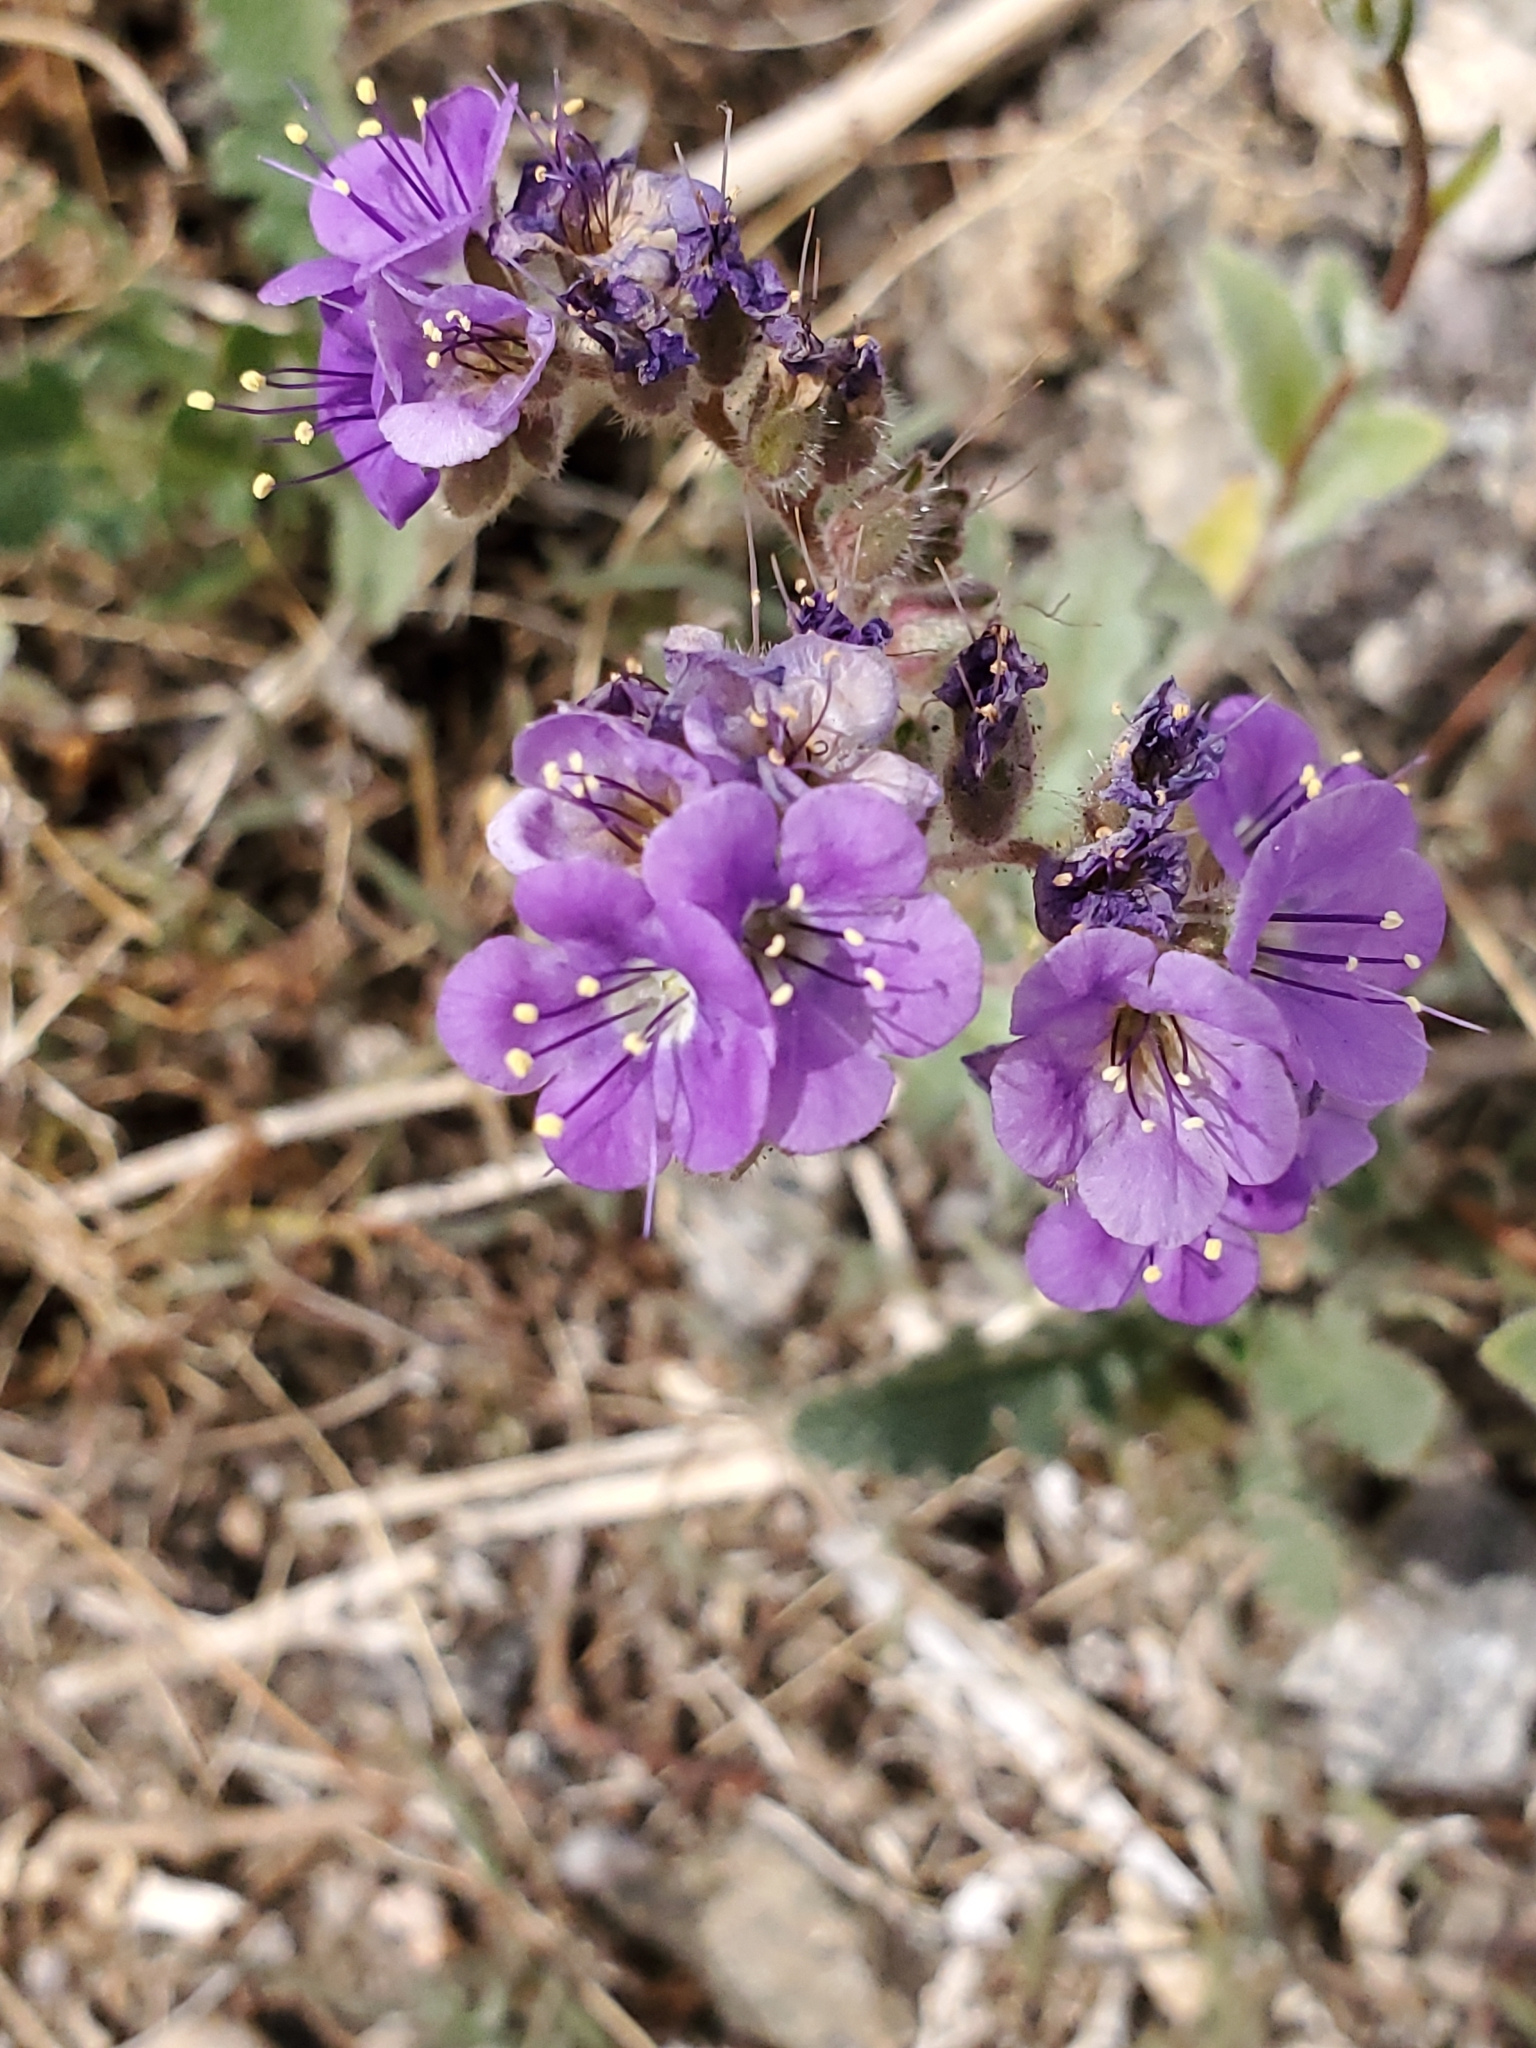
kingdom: Plantae
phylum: Tracheophyta
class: Magnoliopsida
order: Boraginales
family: Hydrophyllaceae
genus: Phacelia
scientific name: Phacelia crenulata
